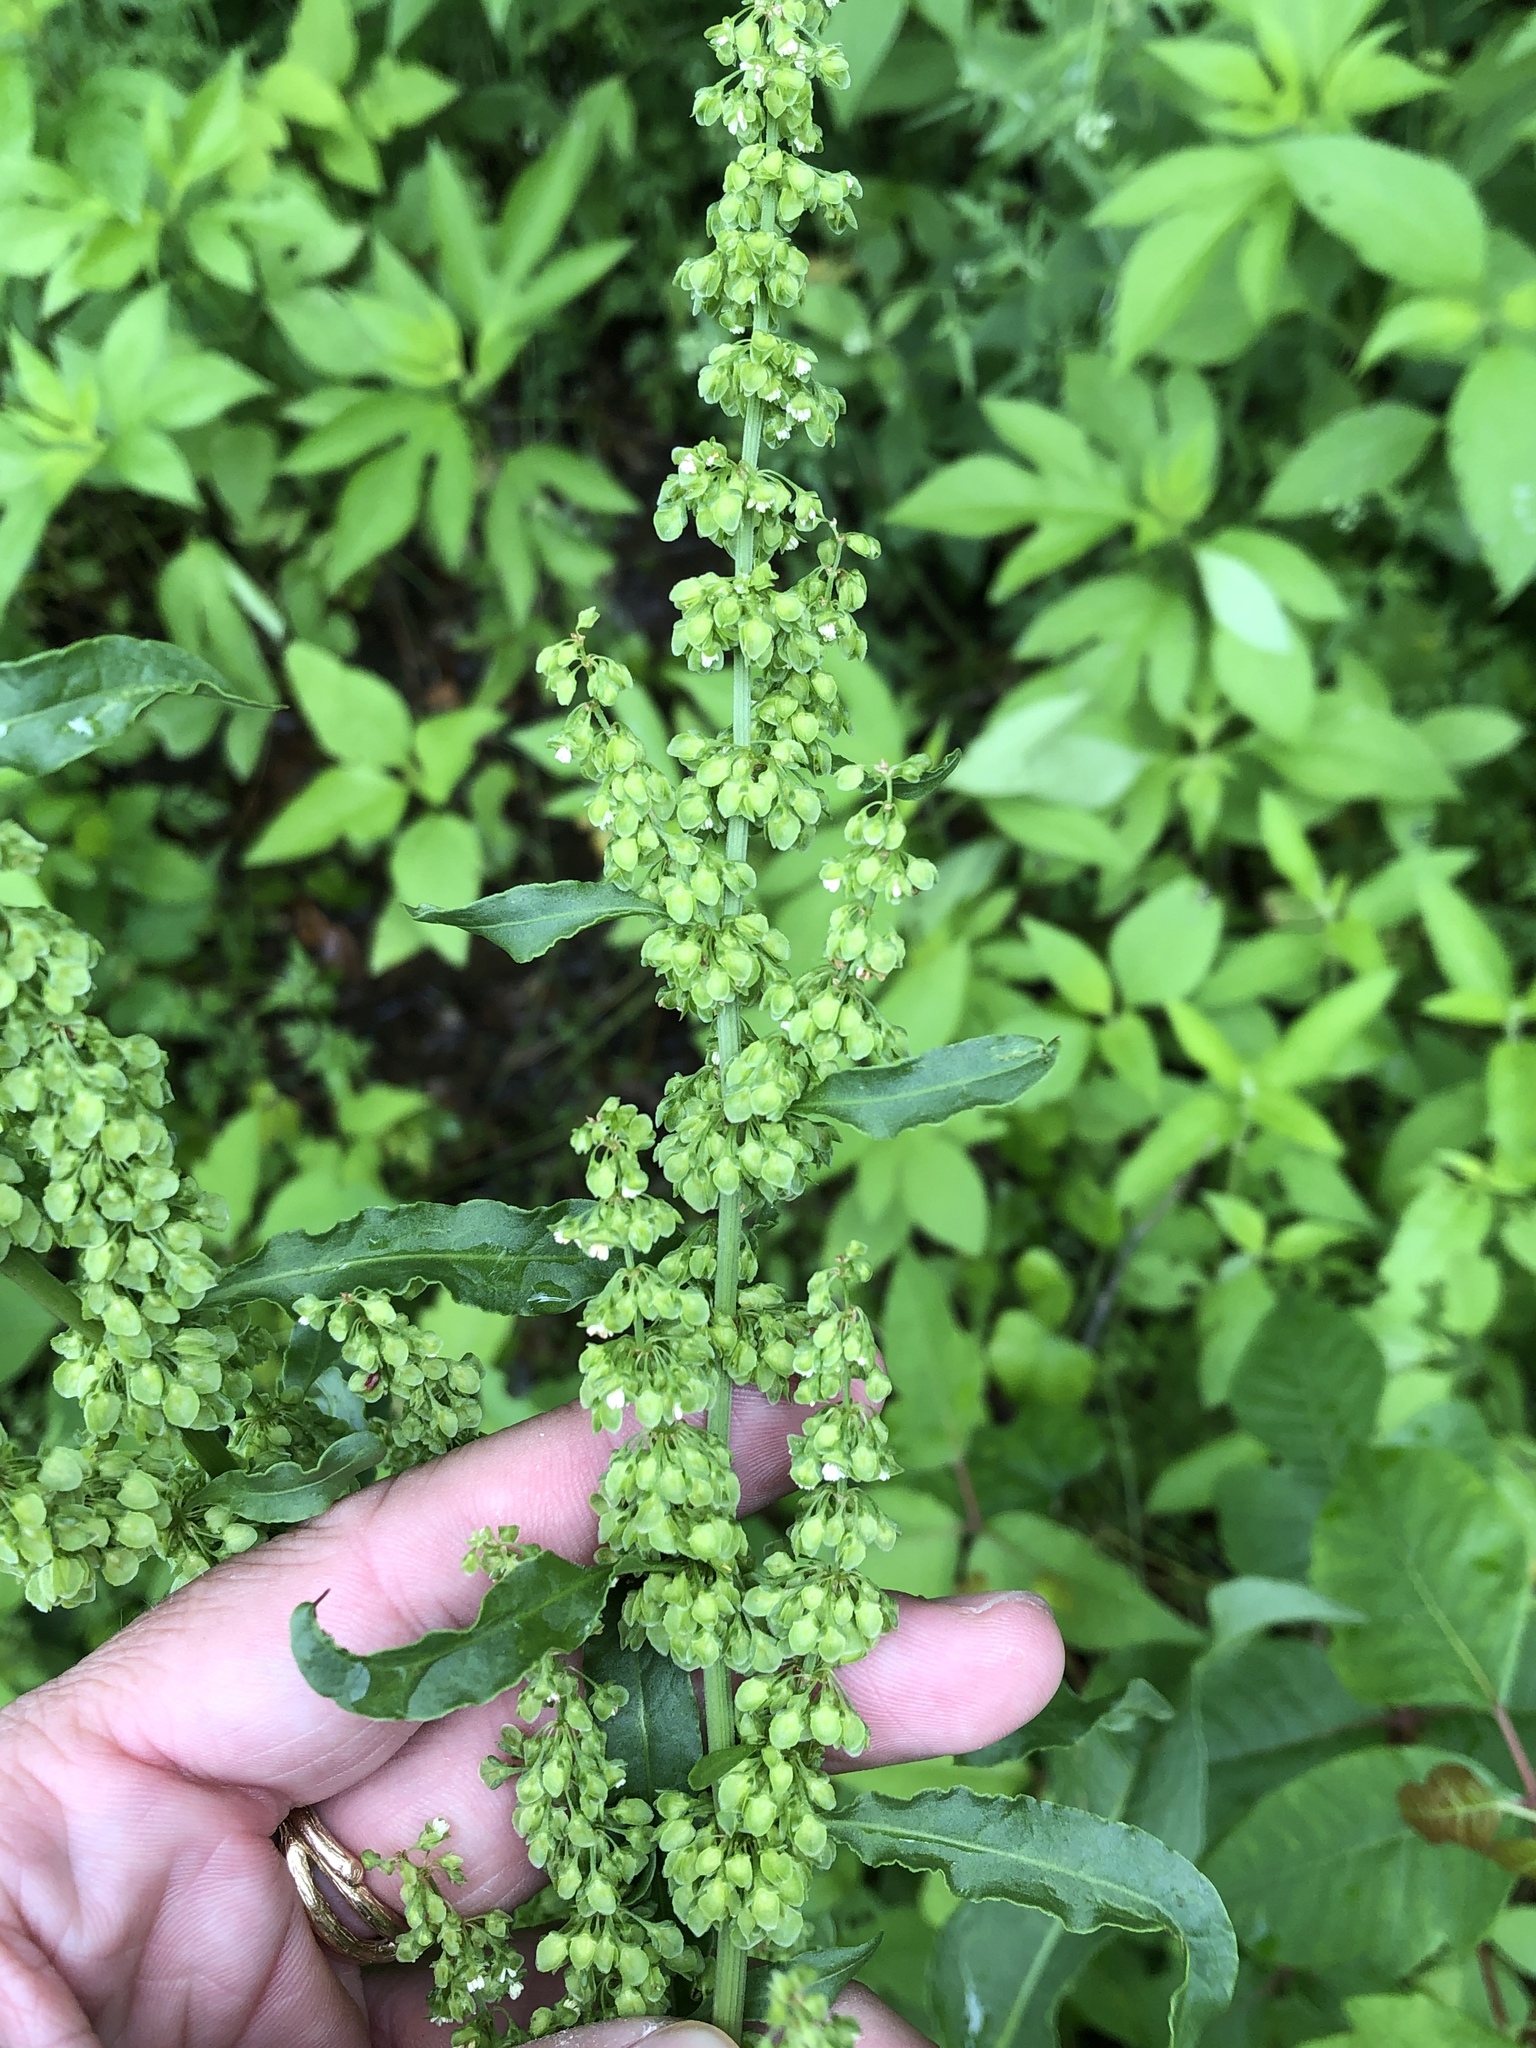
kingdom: Plantae
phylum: Tracheophyta
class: Magnoliopsida
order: Caryophyllales
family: Polygonaceae
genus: Rumex
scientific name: Rumex crispus
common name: Curled dock
